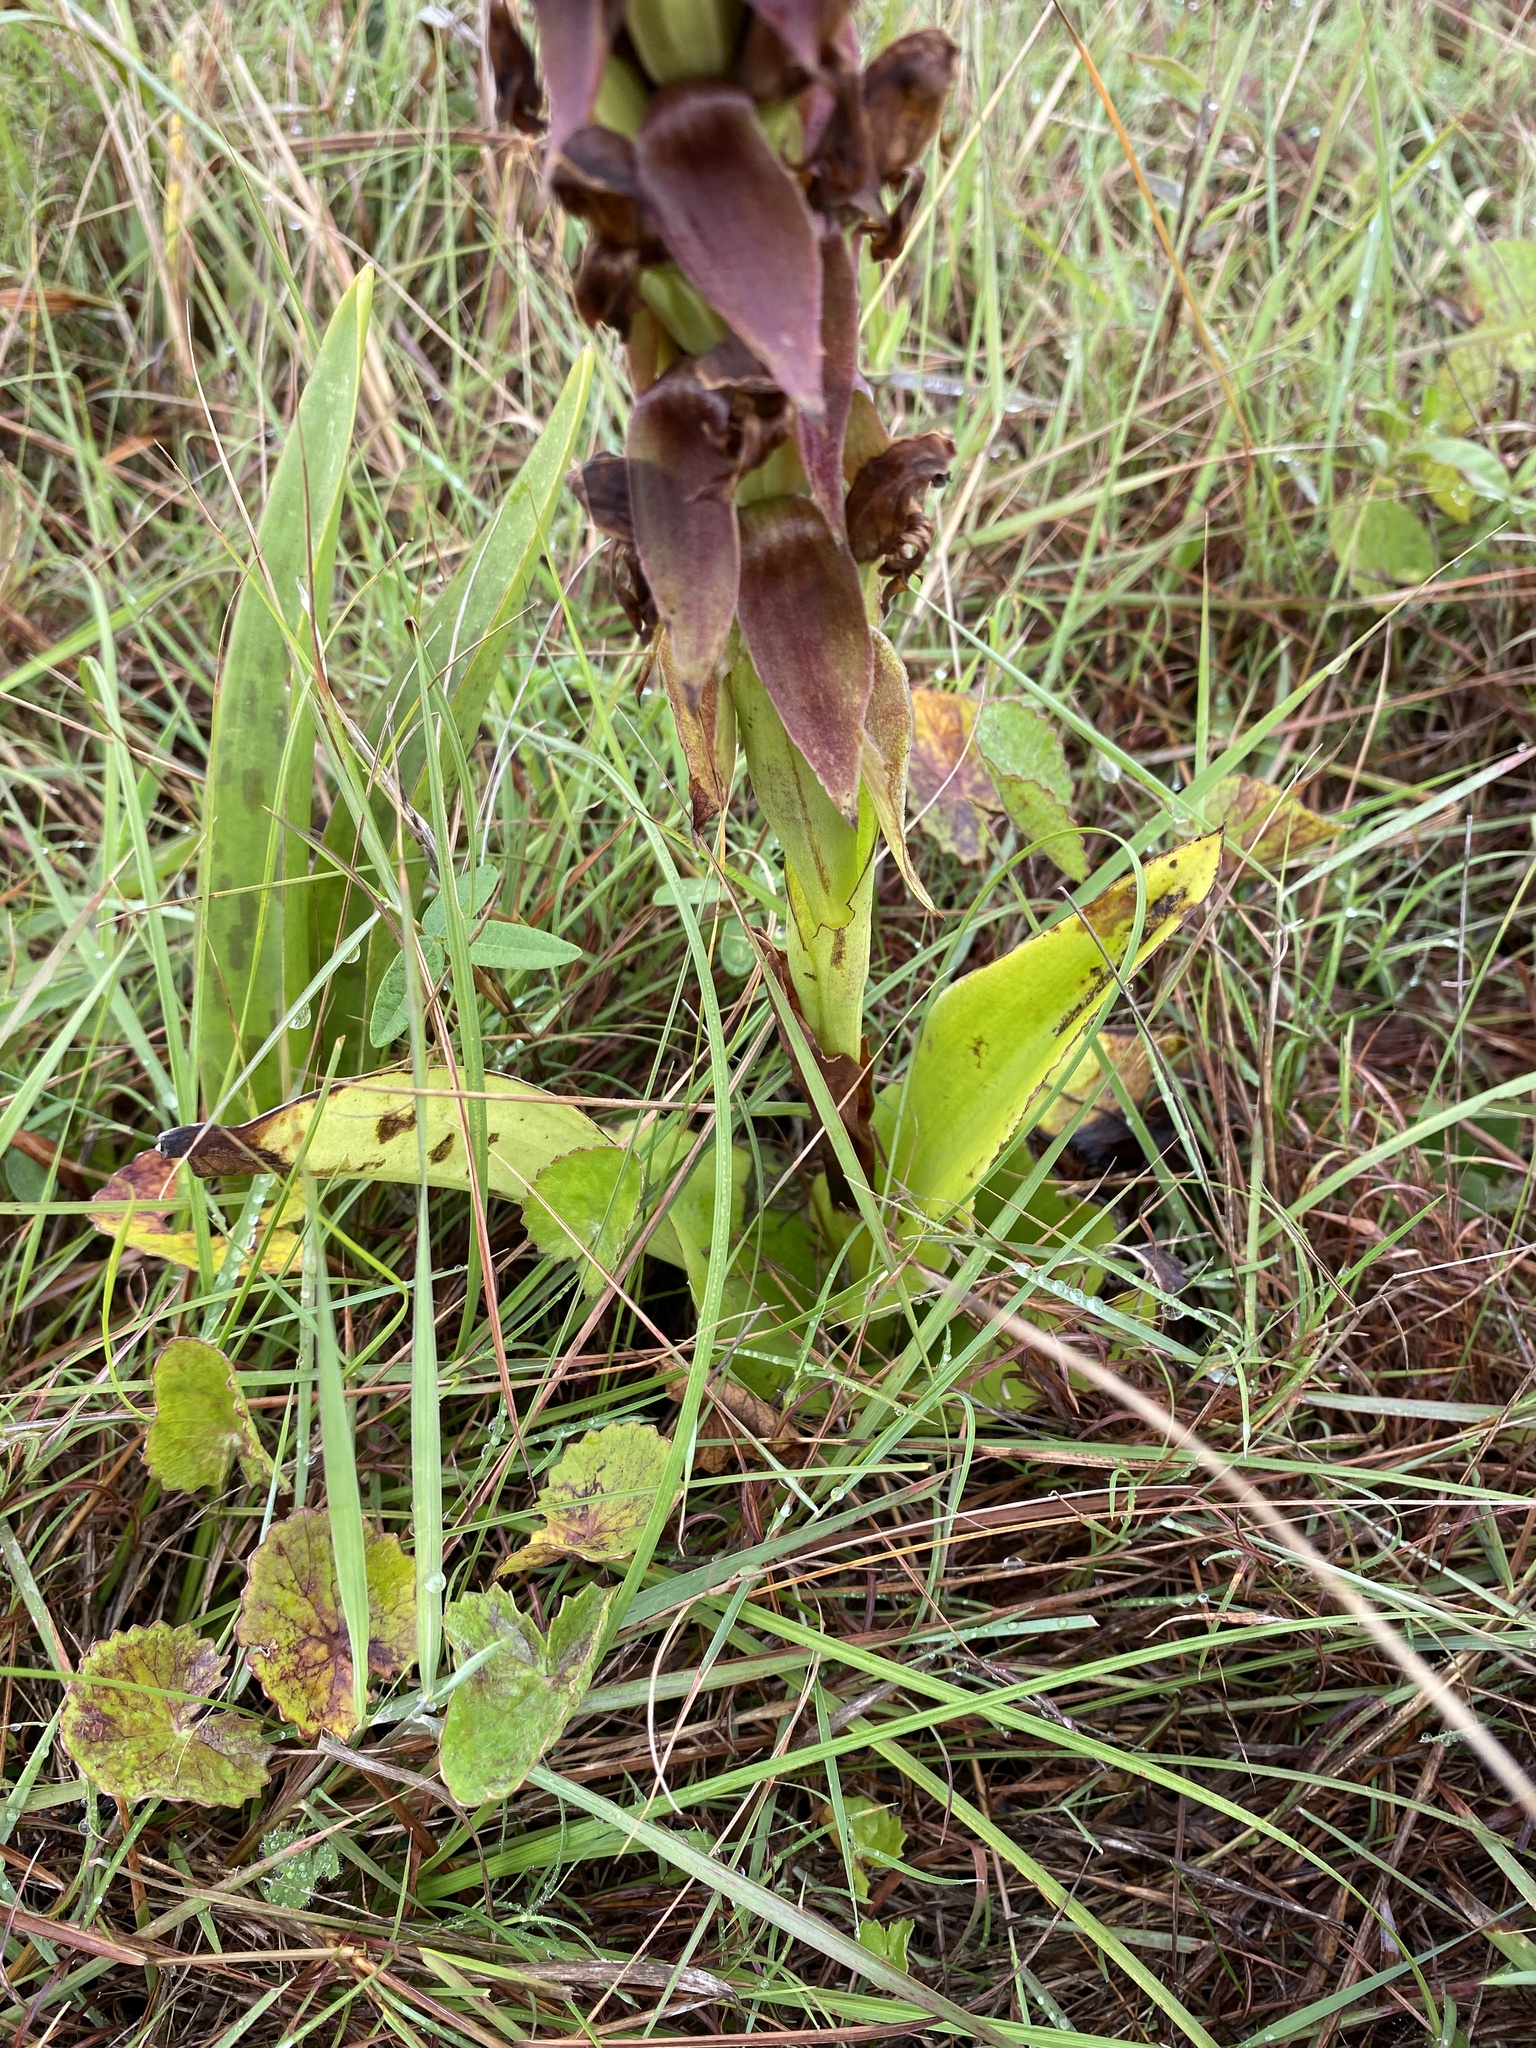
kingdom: Plantae
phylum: Tracheophyta
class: Liliopsida
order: Asparagales
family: Orchidaceae
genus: Satyrium
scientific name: Satyrium sphaerocarpum
